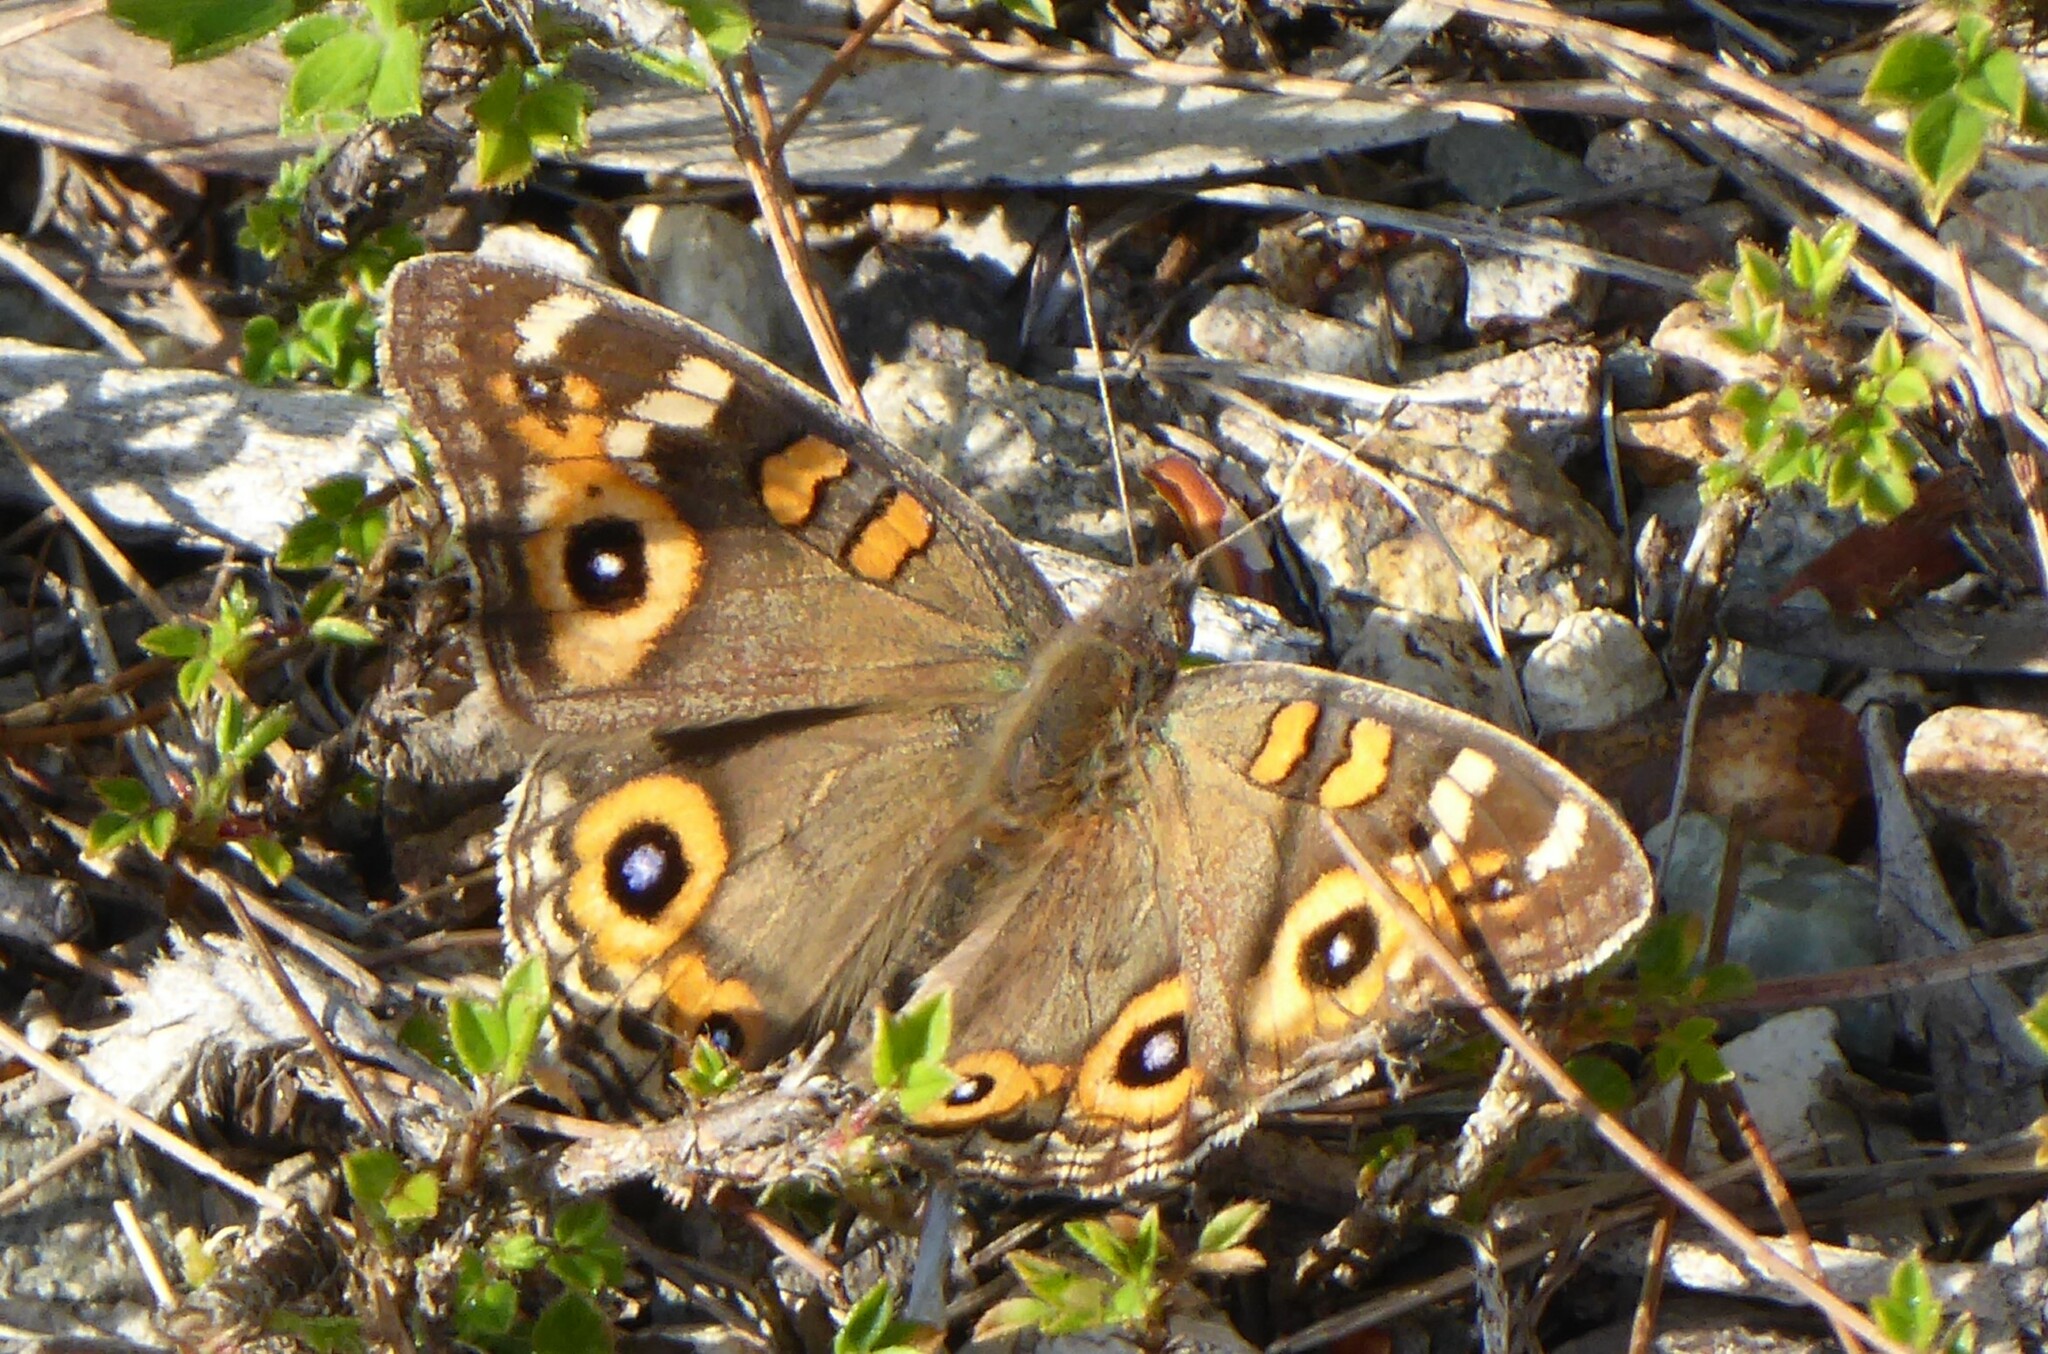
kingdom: Animalia
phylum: Arthropoda
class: Insecta
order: Lepidoptera
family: Nymphalidae
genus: Junonia
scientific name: Junonia villida
